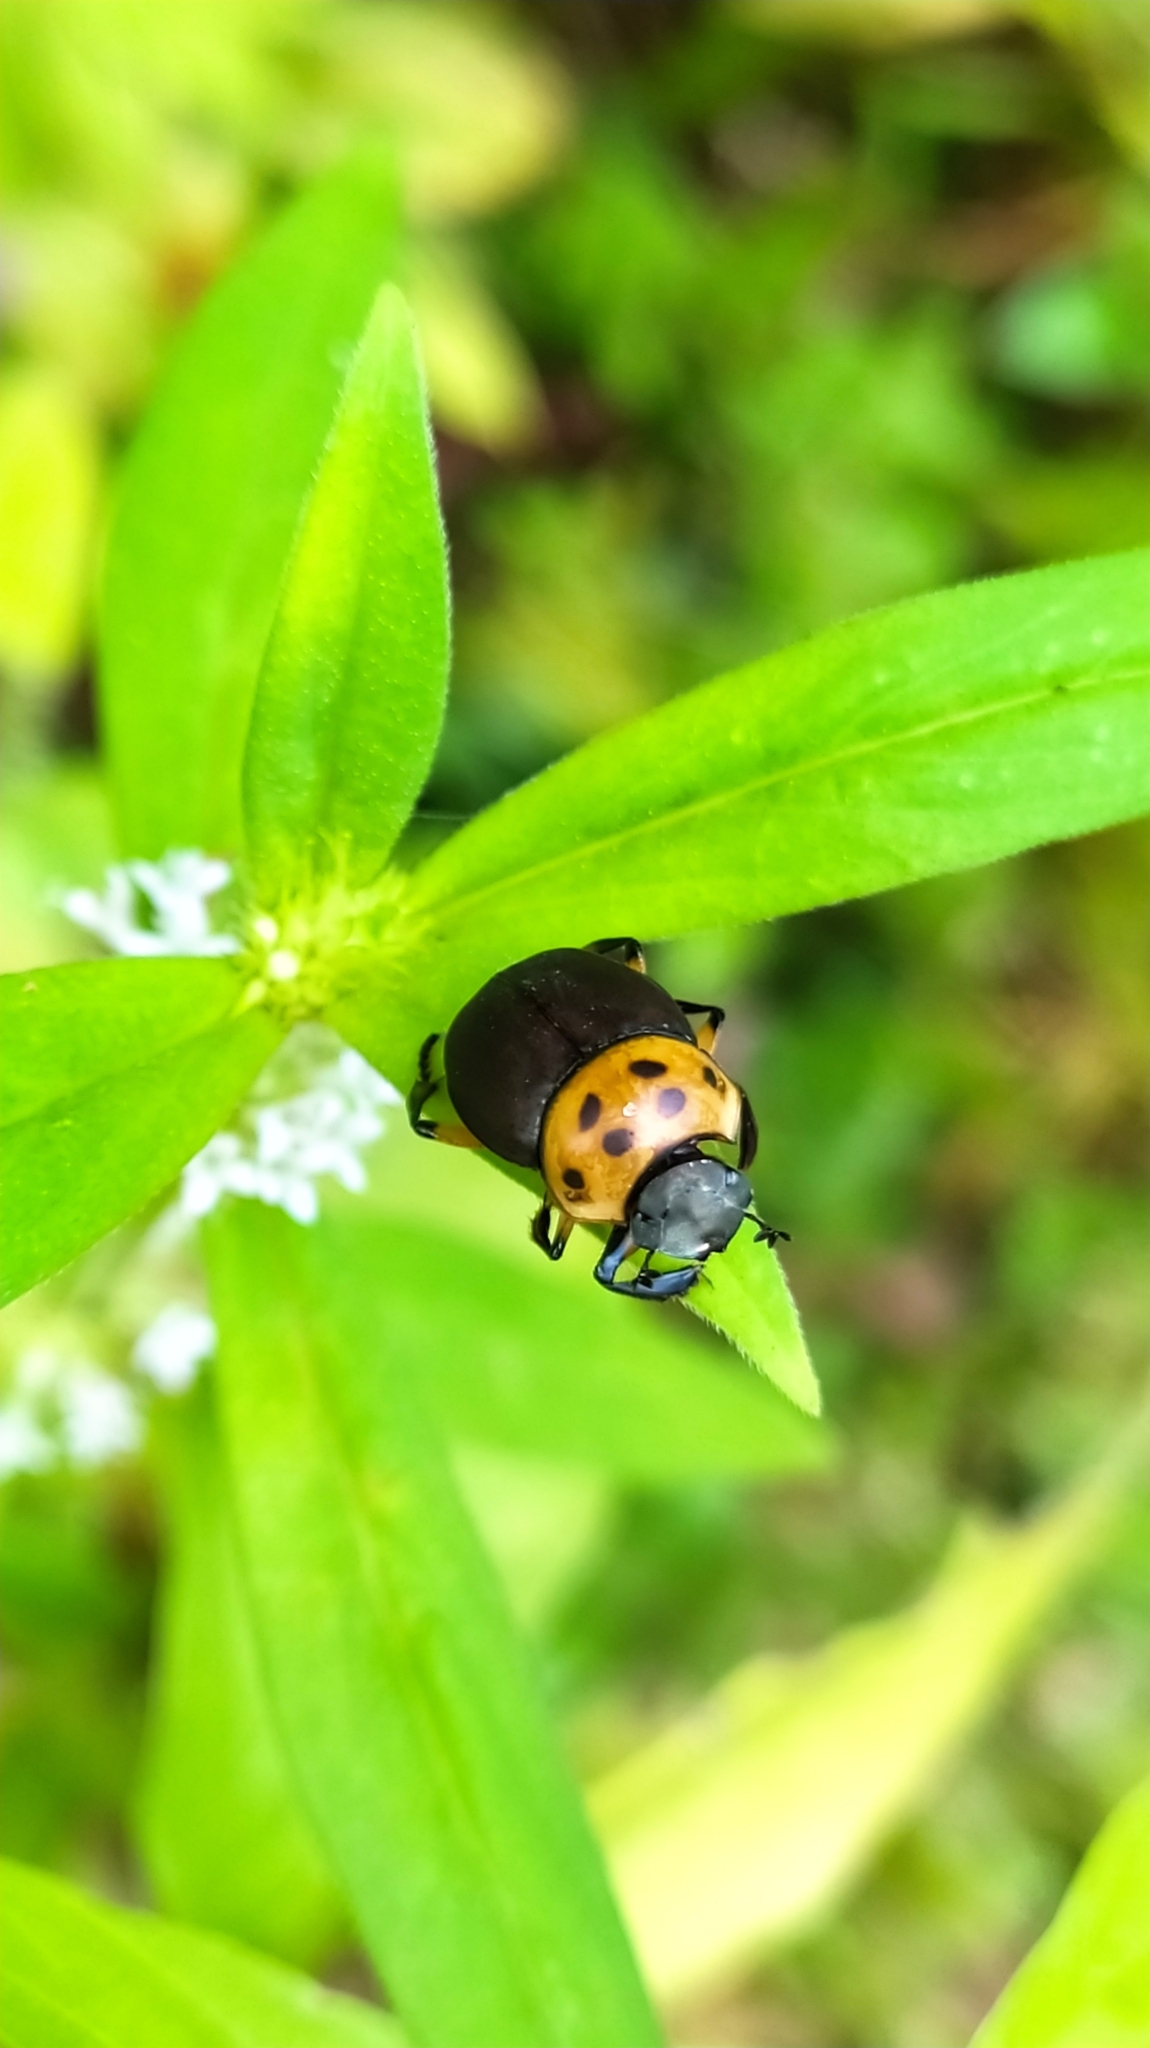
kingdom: Animalia
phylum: Arthropoda
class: Insecta
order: Coleoptera
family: Scarabaeidae
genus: Canthon
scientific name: Canthon triangularis
